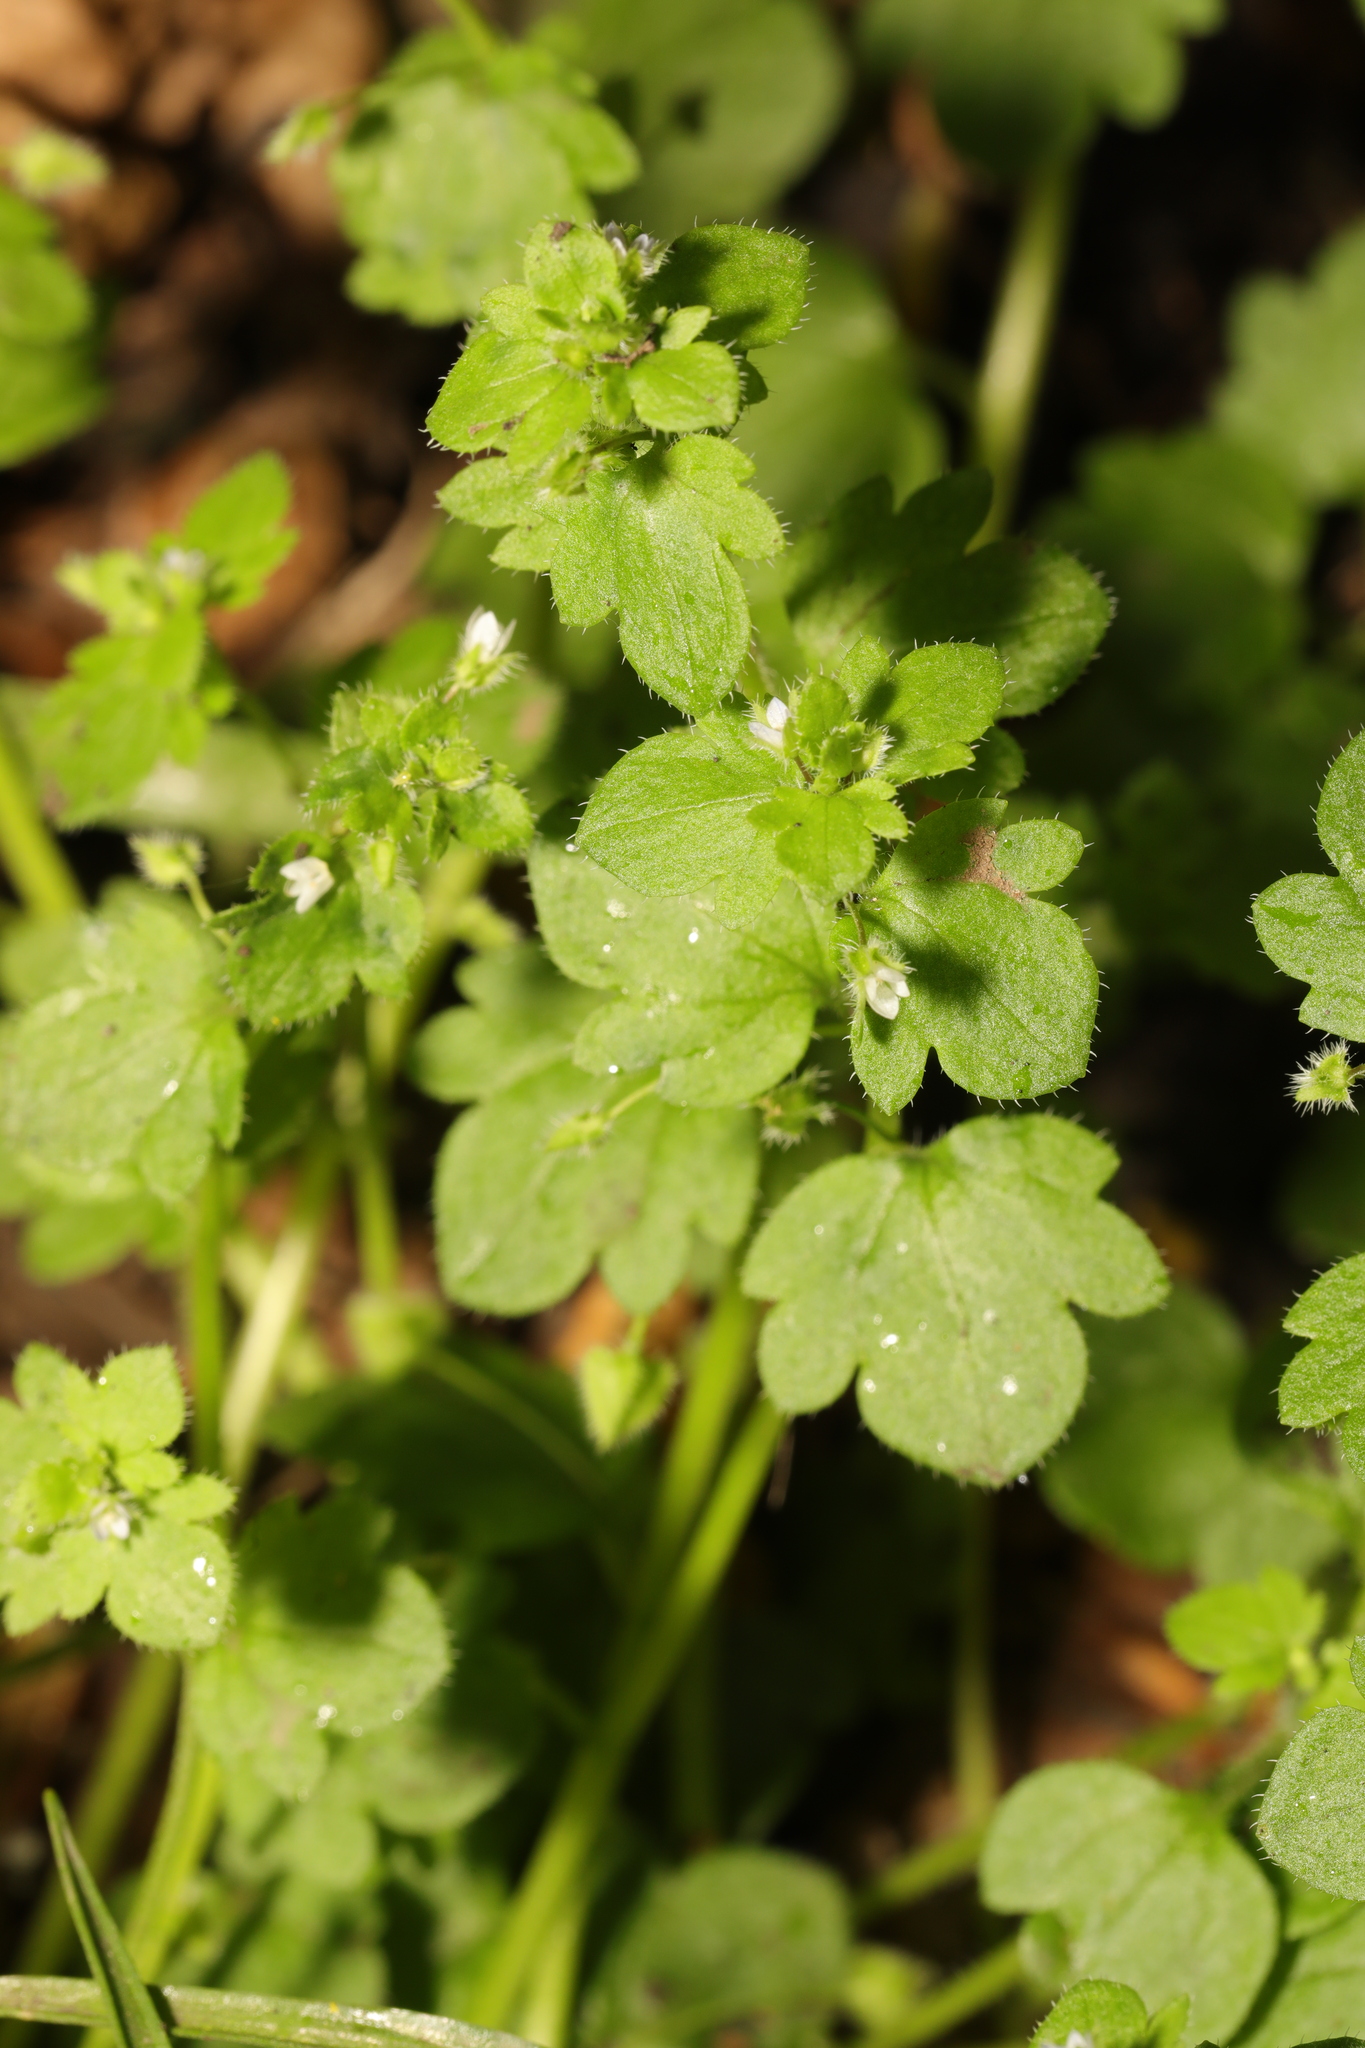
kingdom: Plantae
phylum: Tracheophyta
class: Magnoliopsida
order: Lamiales
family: Plantaginaceae
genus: Veronica
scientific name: Veronica sublobata
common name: False ivy-leaved speedwell
